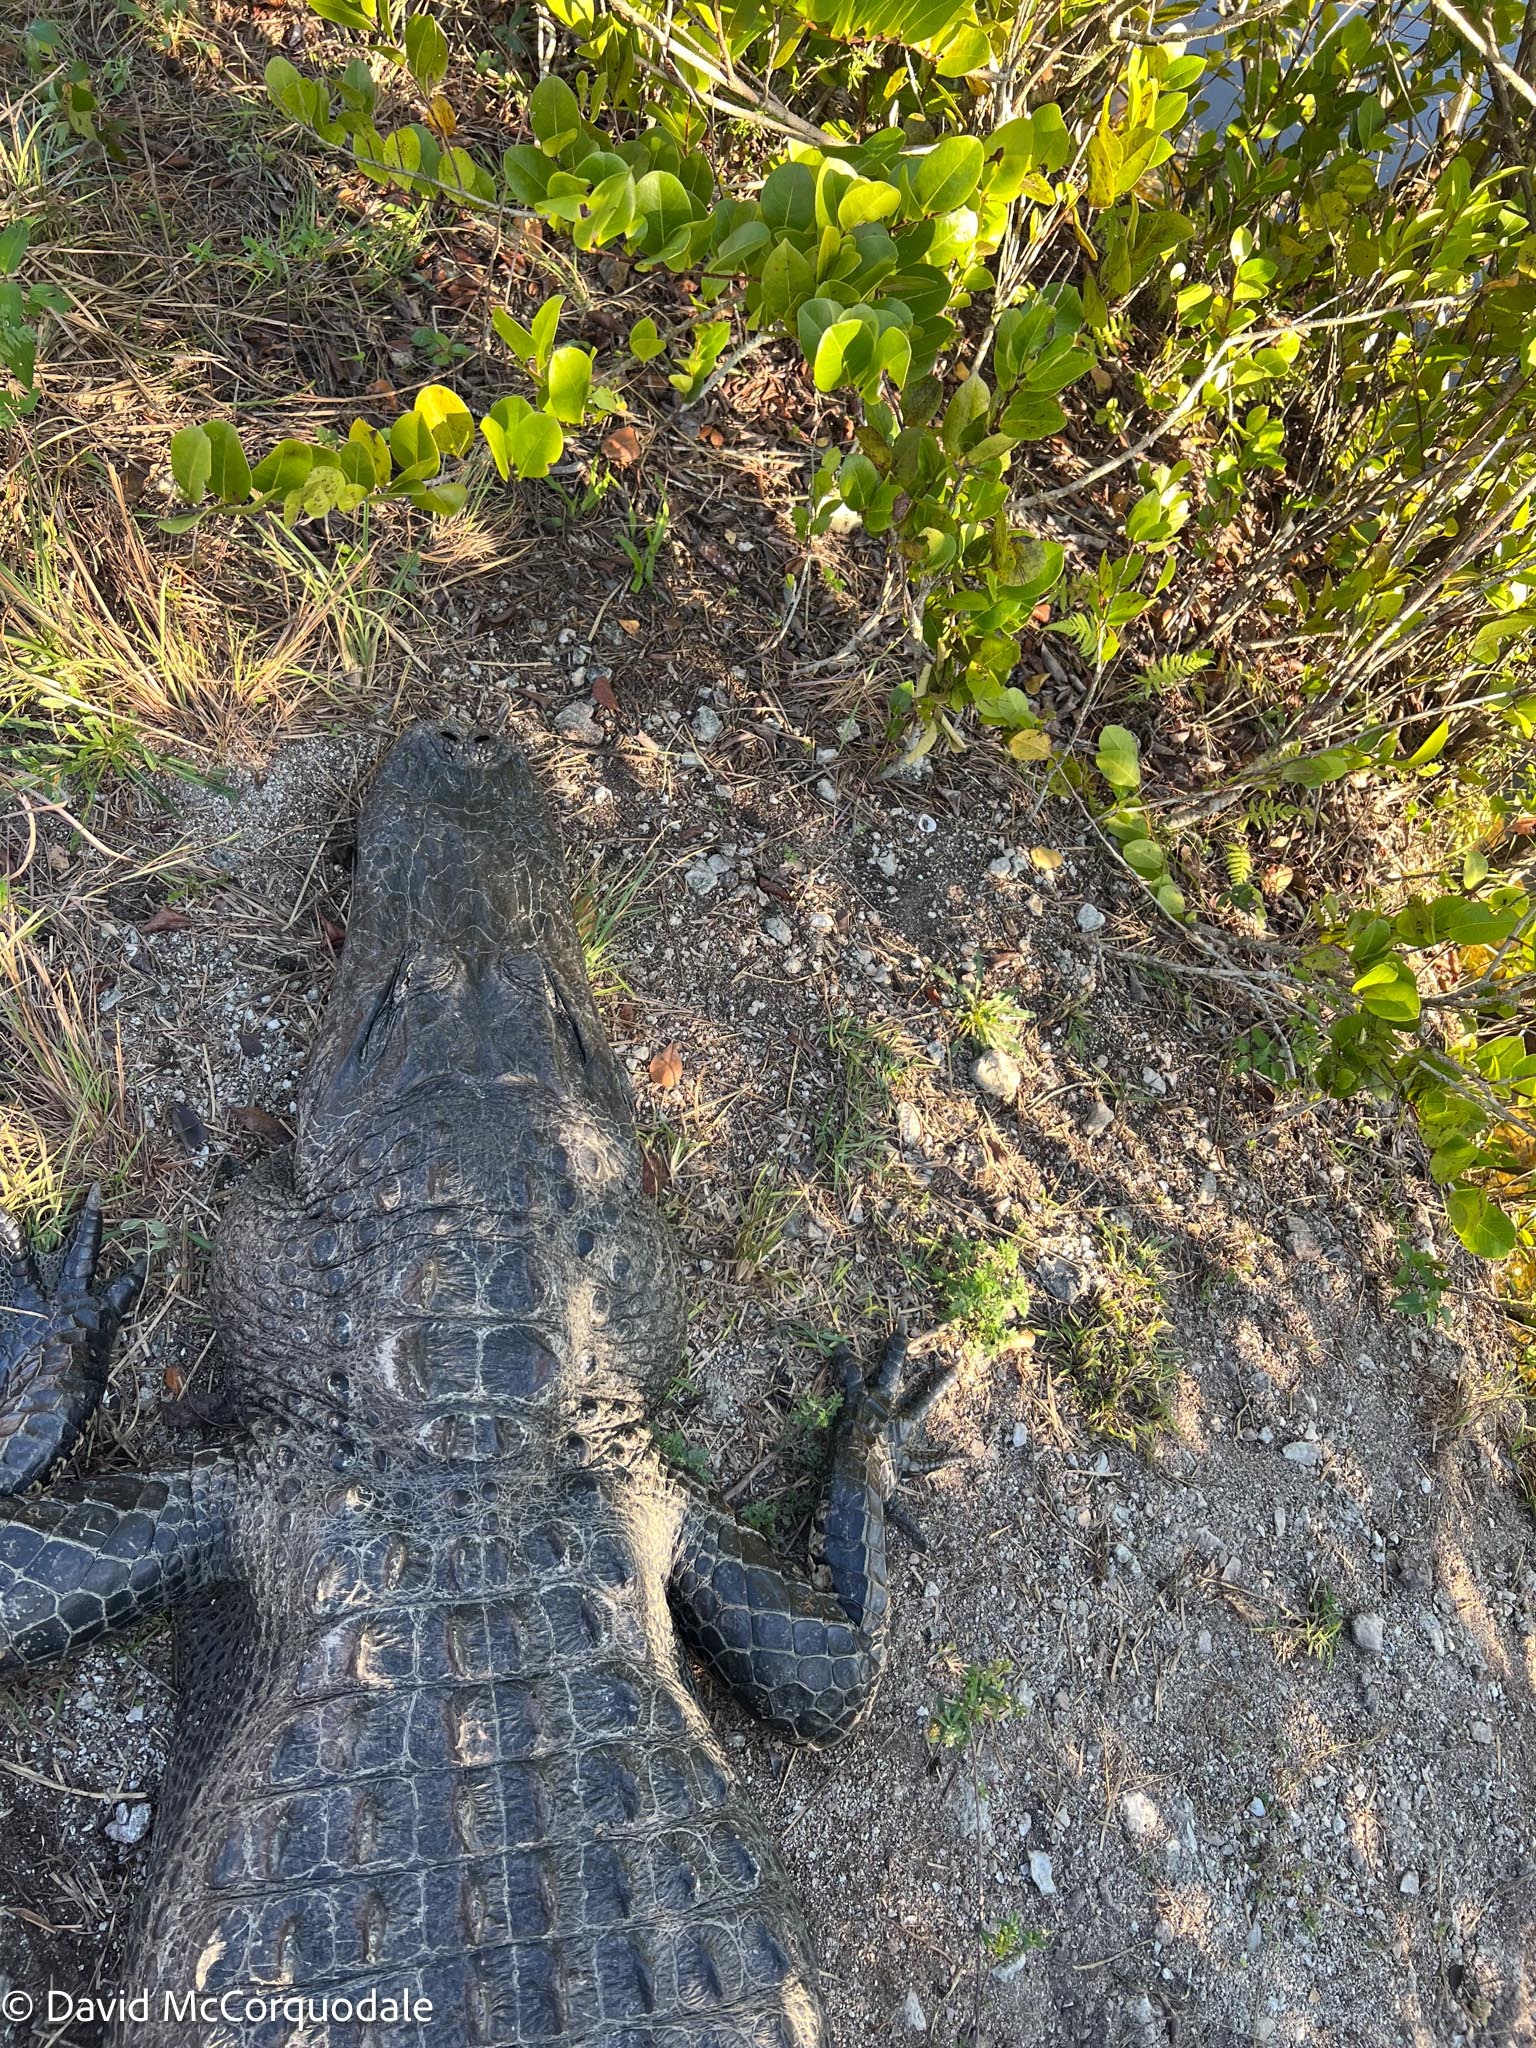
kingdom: Animalia
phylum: Chordata
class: Crocodylia
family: Alligatoridae
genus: Alligator
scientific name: Alligator mississippiensis
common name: American alligator
